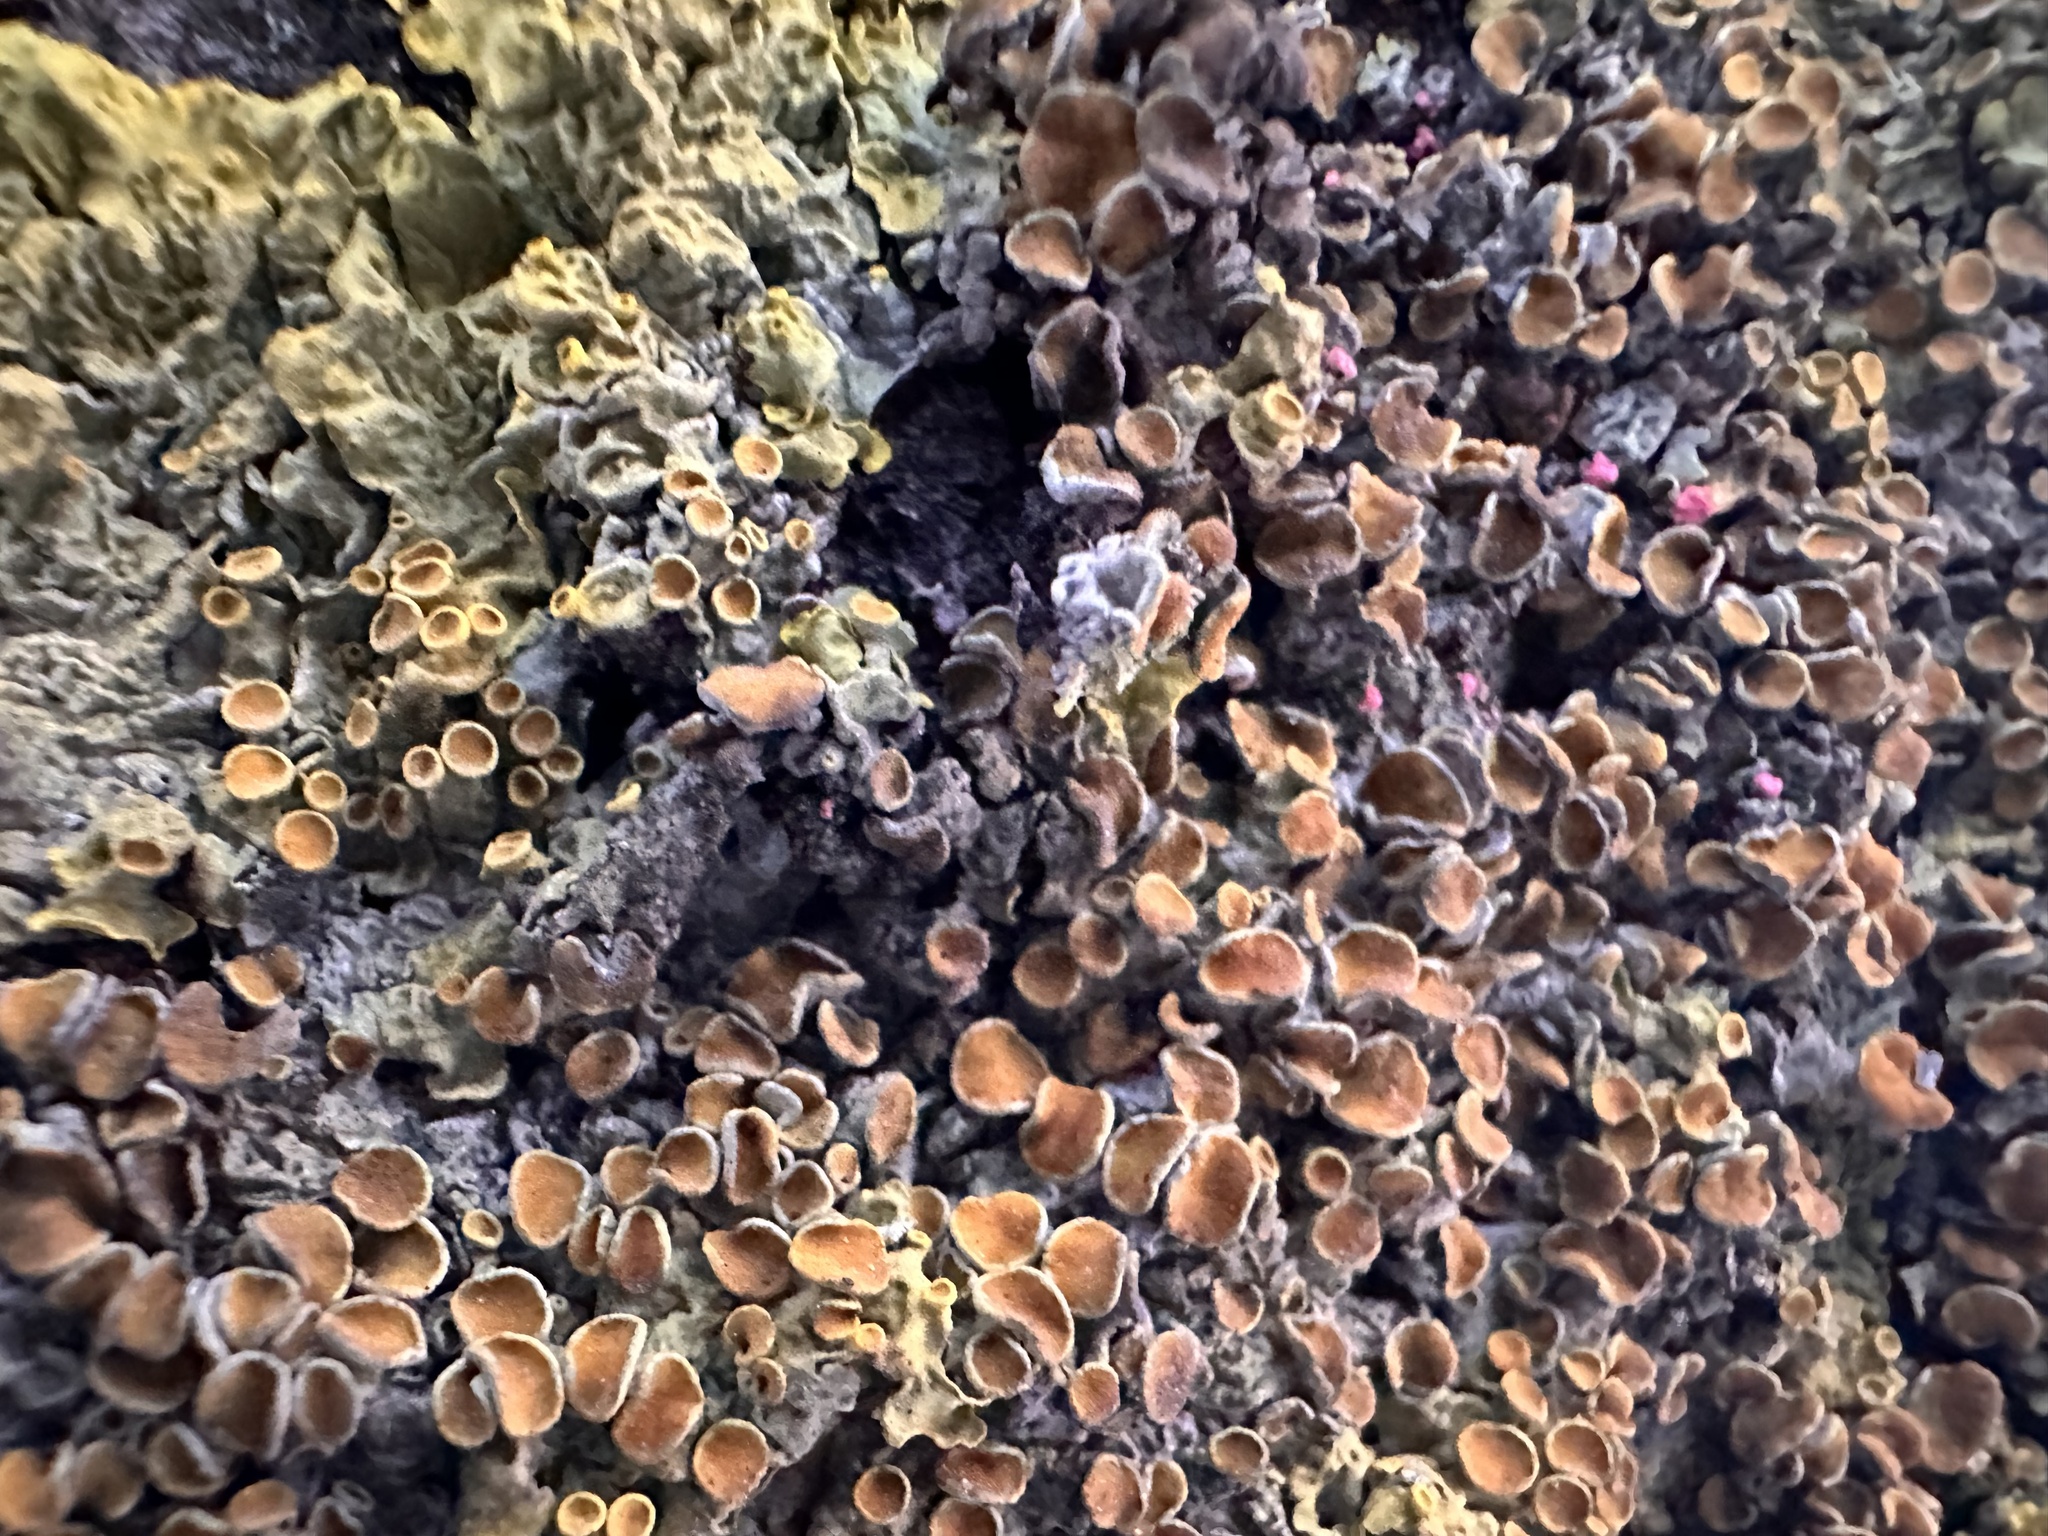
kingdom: Fungi
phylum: Ascomycota
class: Lecanoromycetes
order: Teloschistales
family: Teloschistaceae
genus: Xanthoria
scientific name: Xanthoria parietina
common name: Common orange lichen
